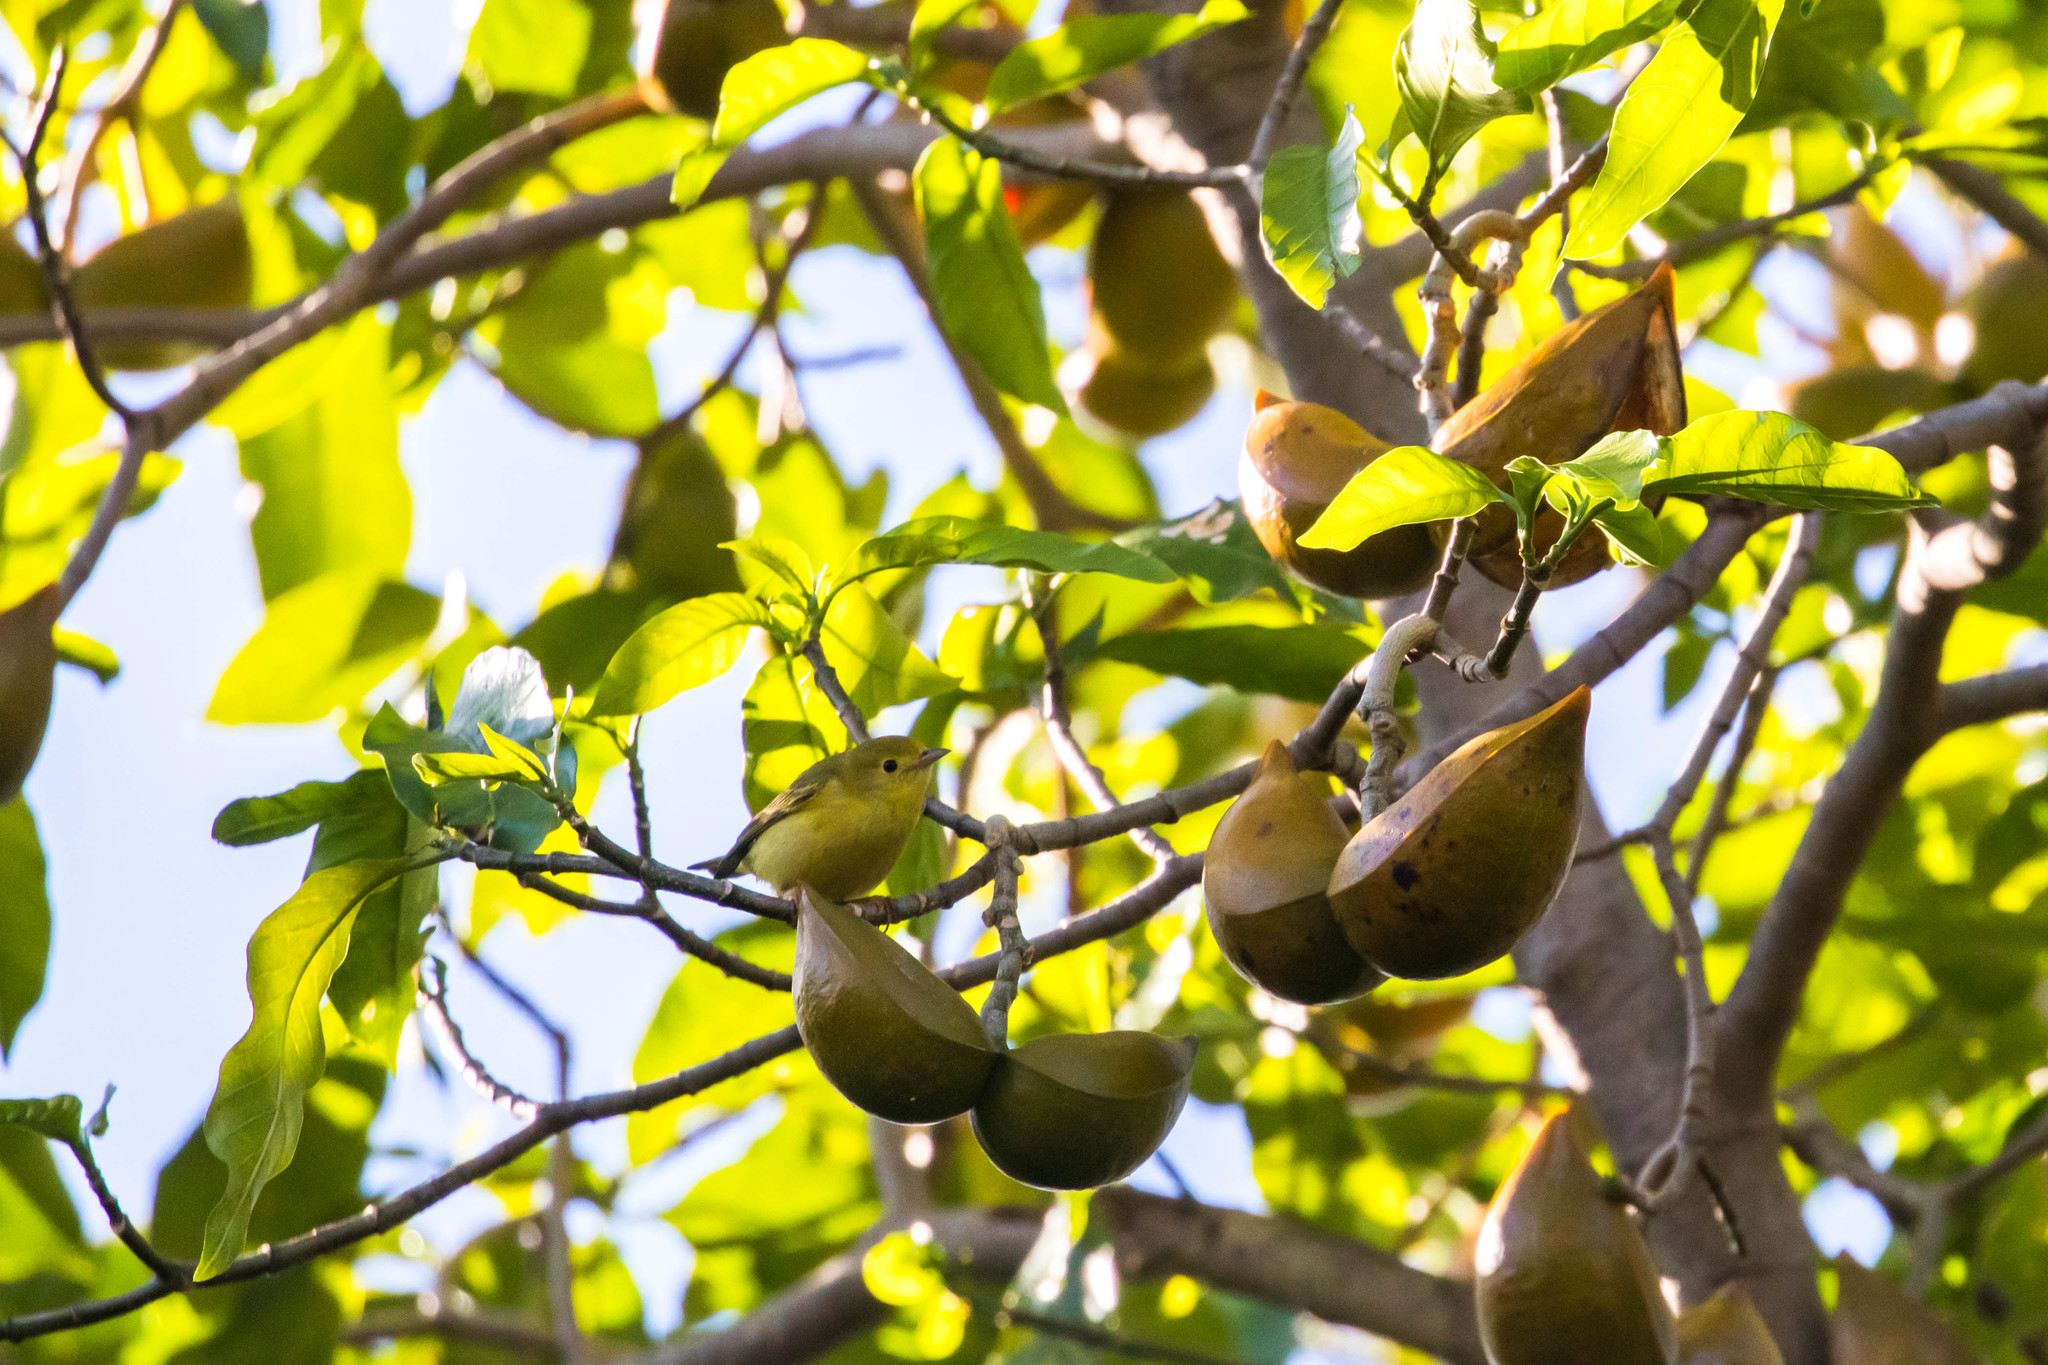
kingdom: Animalia
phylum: Chordata
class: Aves
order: Passeriformes
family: Parulidae
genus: Setophaga
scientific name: Setophaga petechia
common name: Yellow warbler
